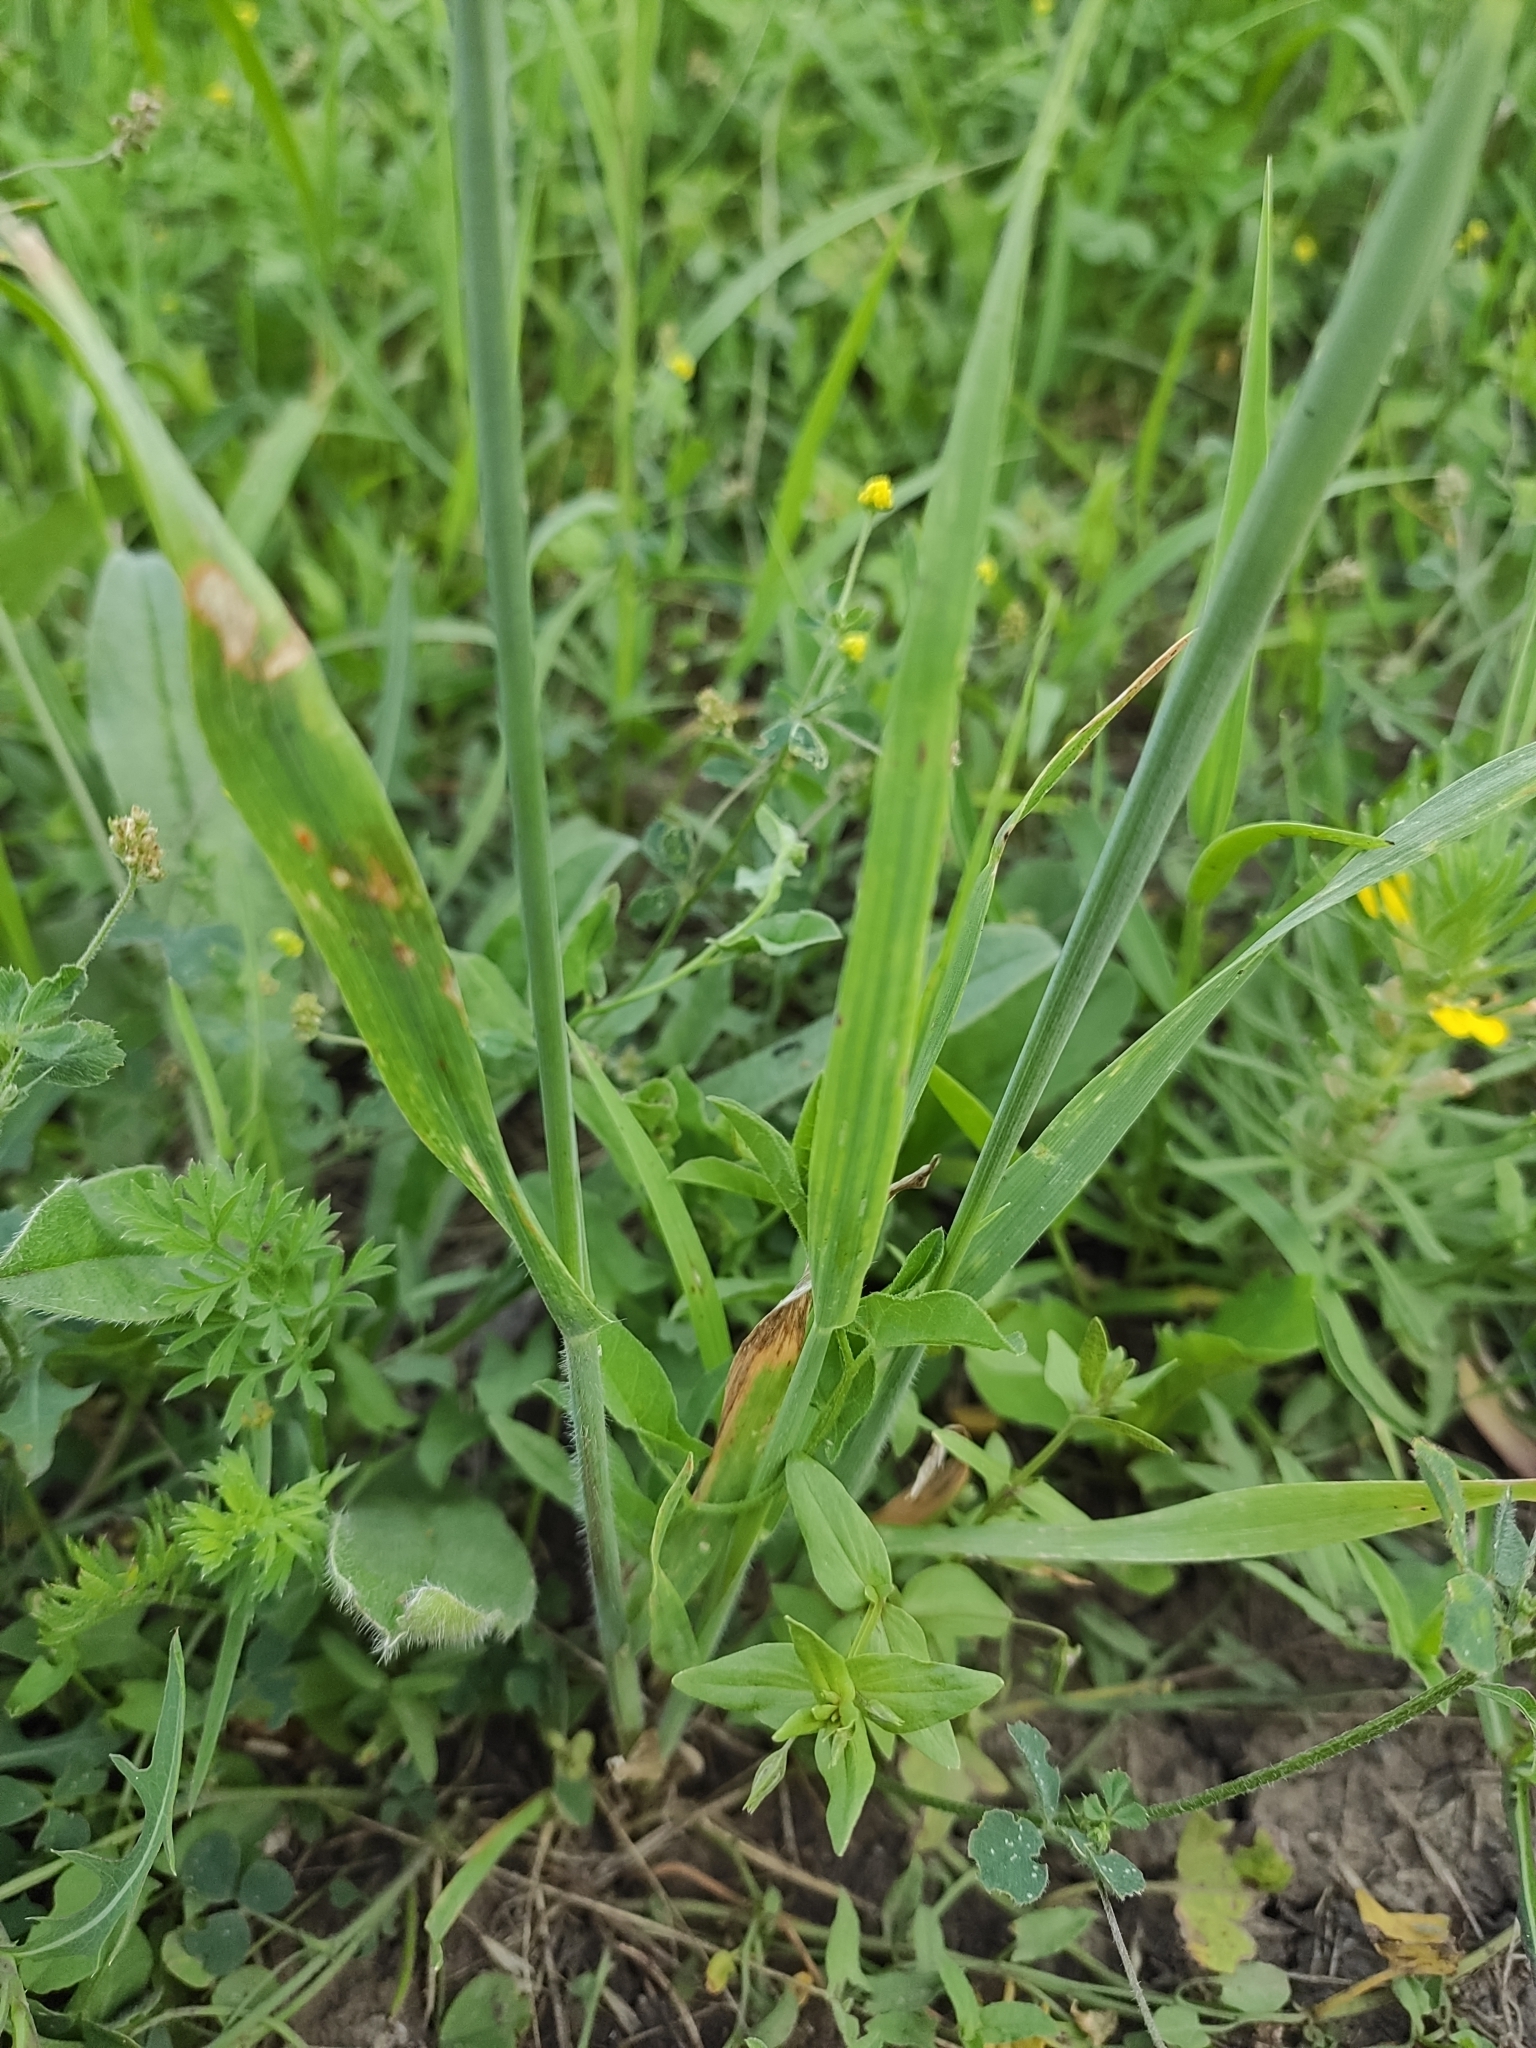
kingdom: Plantae
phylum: Tracheophyta
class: Liliopsida
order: Poales
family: Poaceae
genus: Avena
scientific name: Avena fatua
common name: Wild oat
